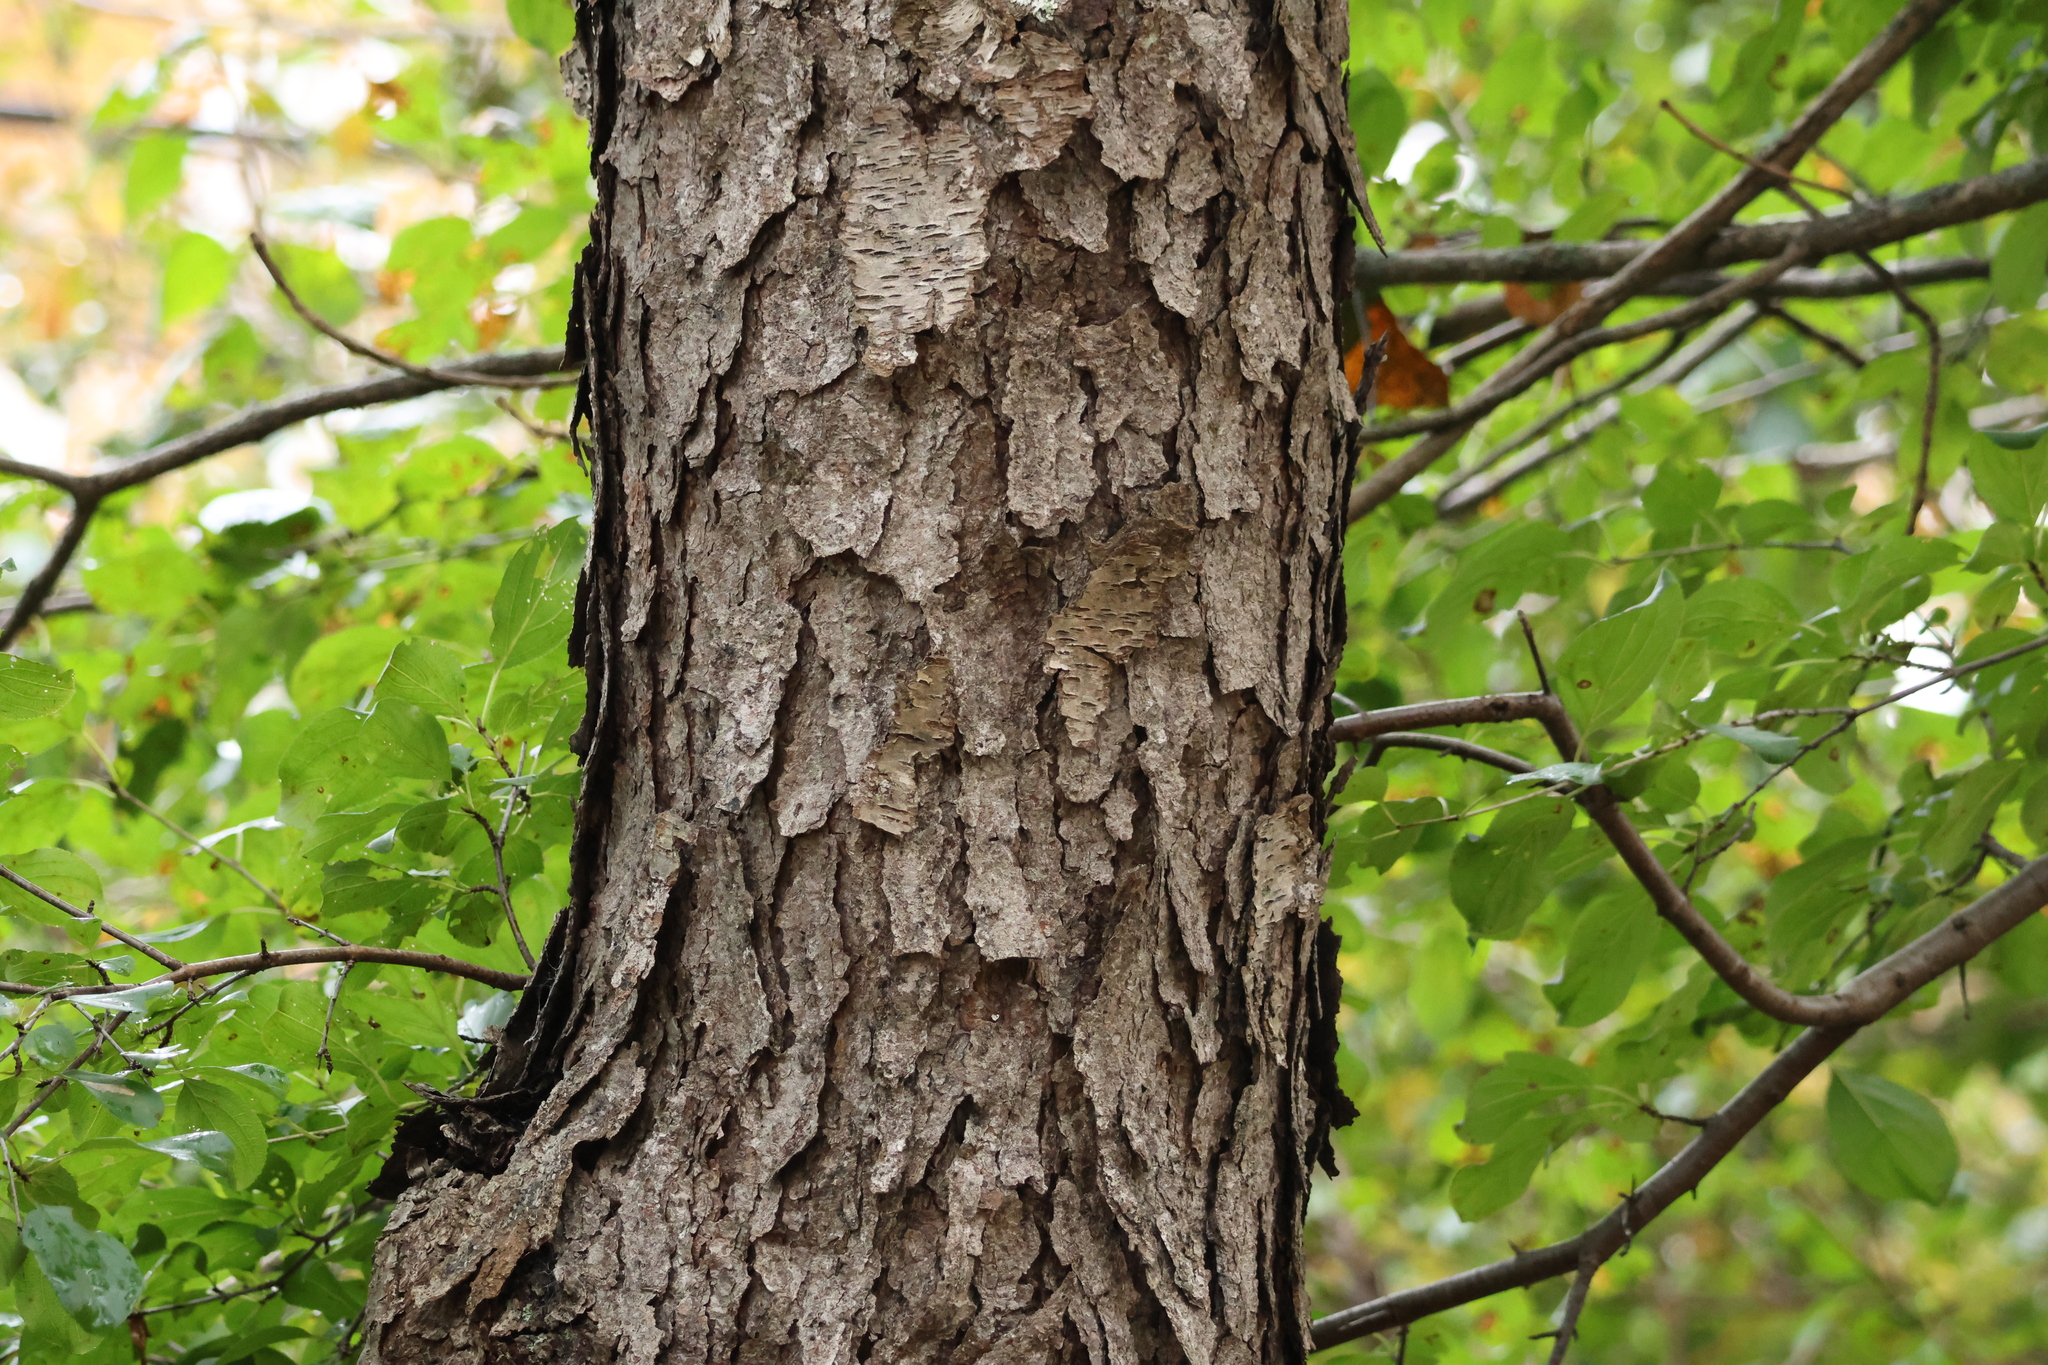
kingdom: Plantae
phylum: Tracheophyta
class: Magnoliopsida
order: Rosales
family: Rosaceae
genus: Prunus
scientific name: Prunus serotina
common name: Black cherry
